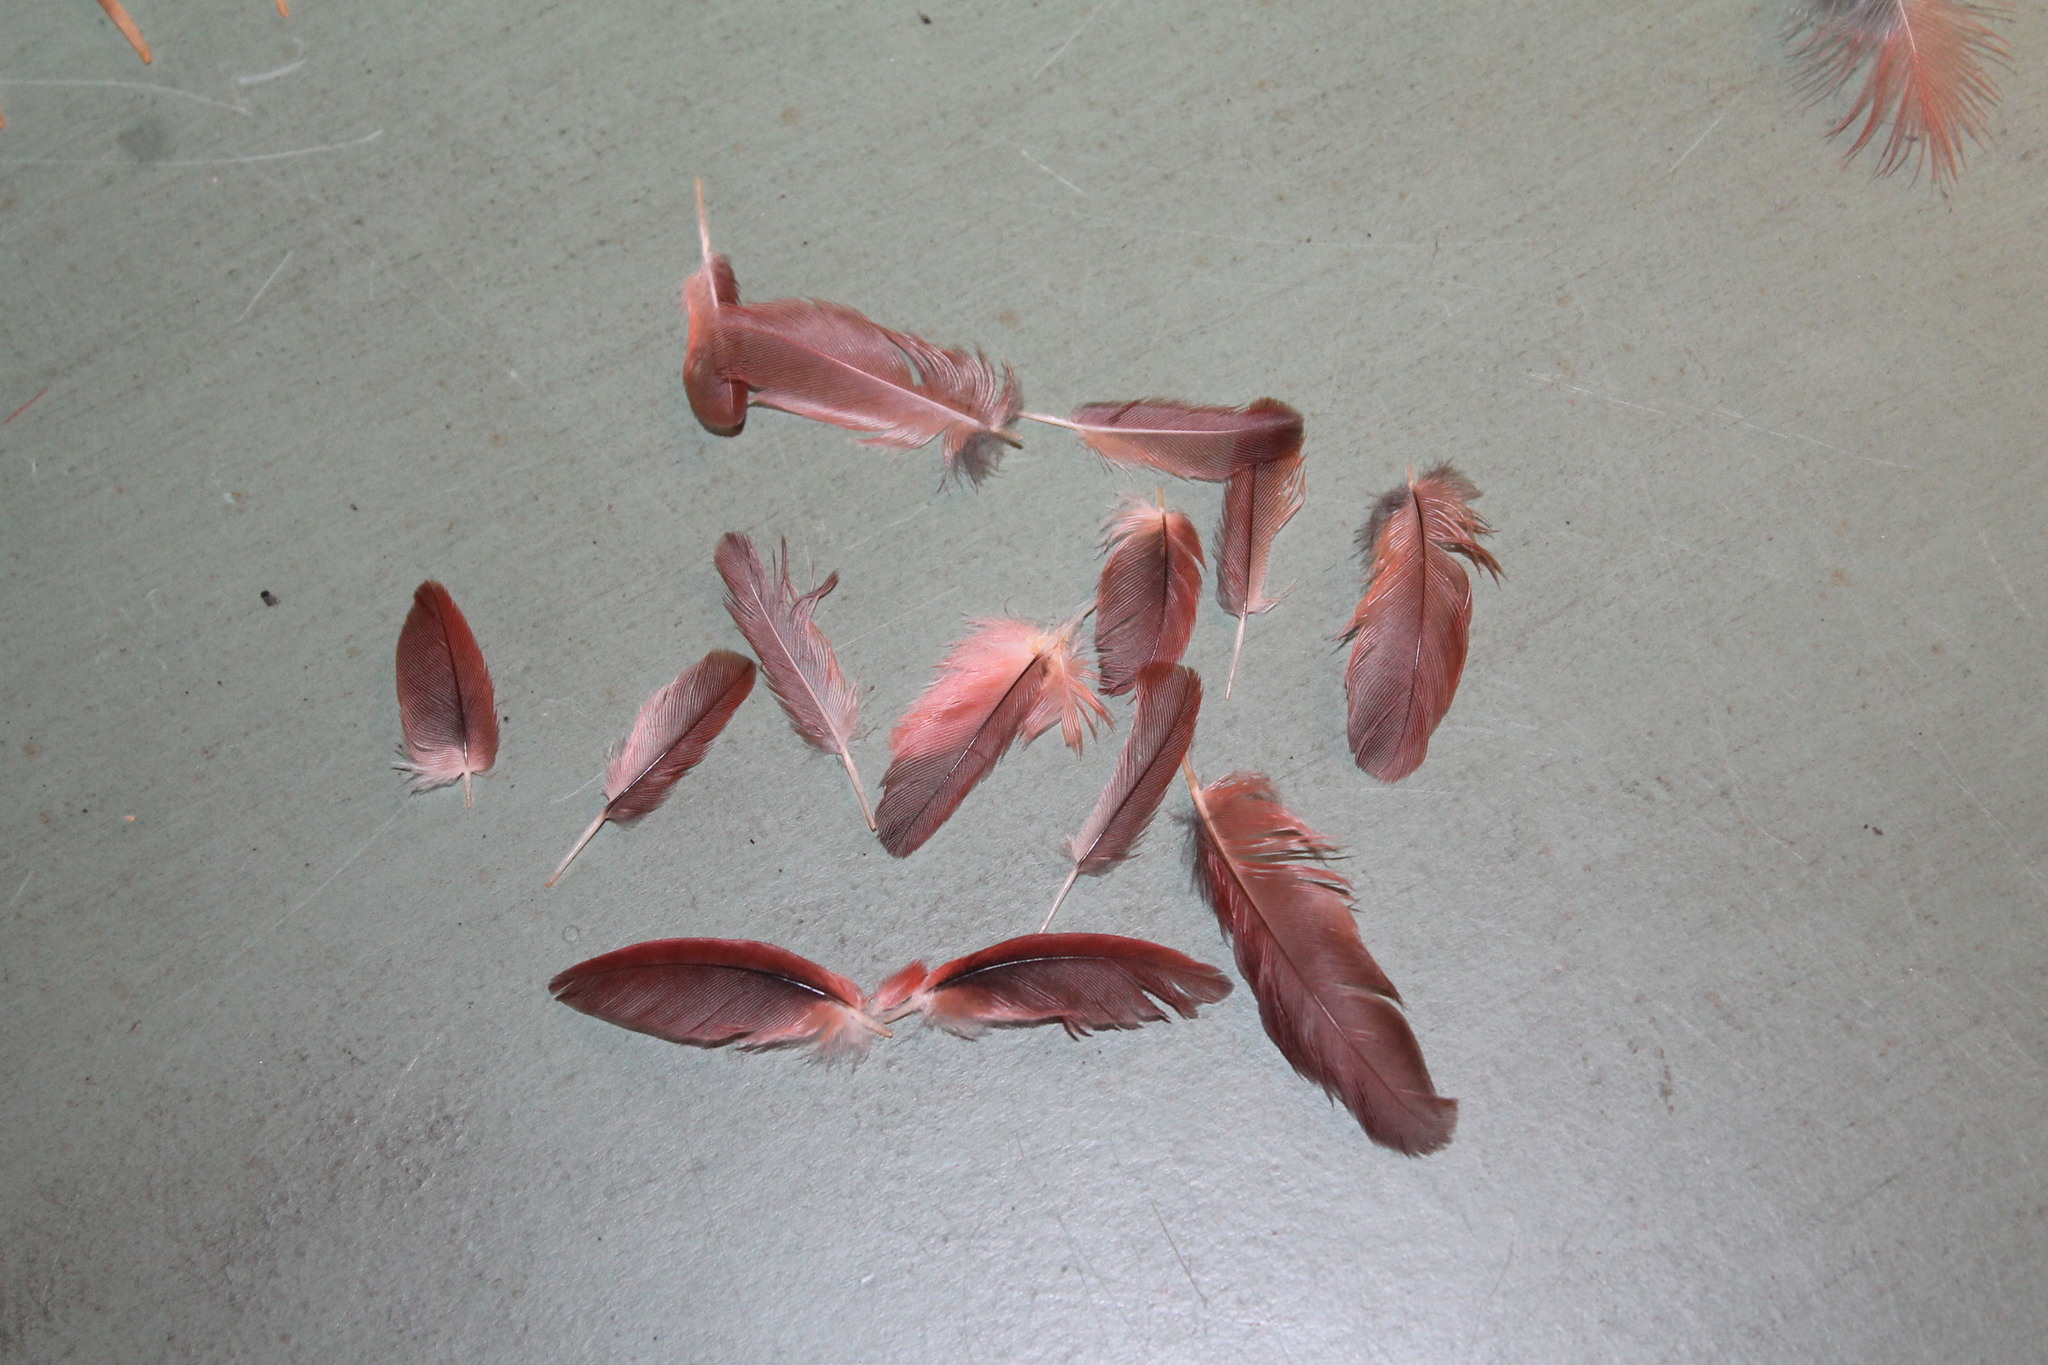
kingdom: Animalia
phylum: Chordata
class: Aves
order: Passeriformes
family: Cardinalidae
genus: Cardinalis
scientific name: Cardinalis cardinalis
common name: Northern cardinal
